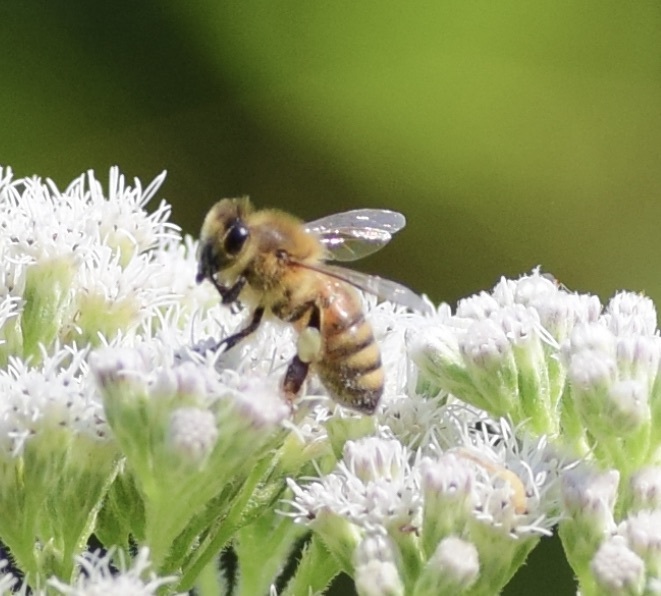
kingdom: Animalia
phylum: Arthropoda
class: Insecta
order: Hymenoptera
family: Apidae
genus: Apis
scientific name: Apis mellifera
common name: Honey bee
